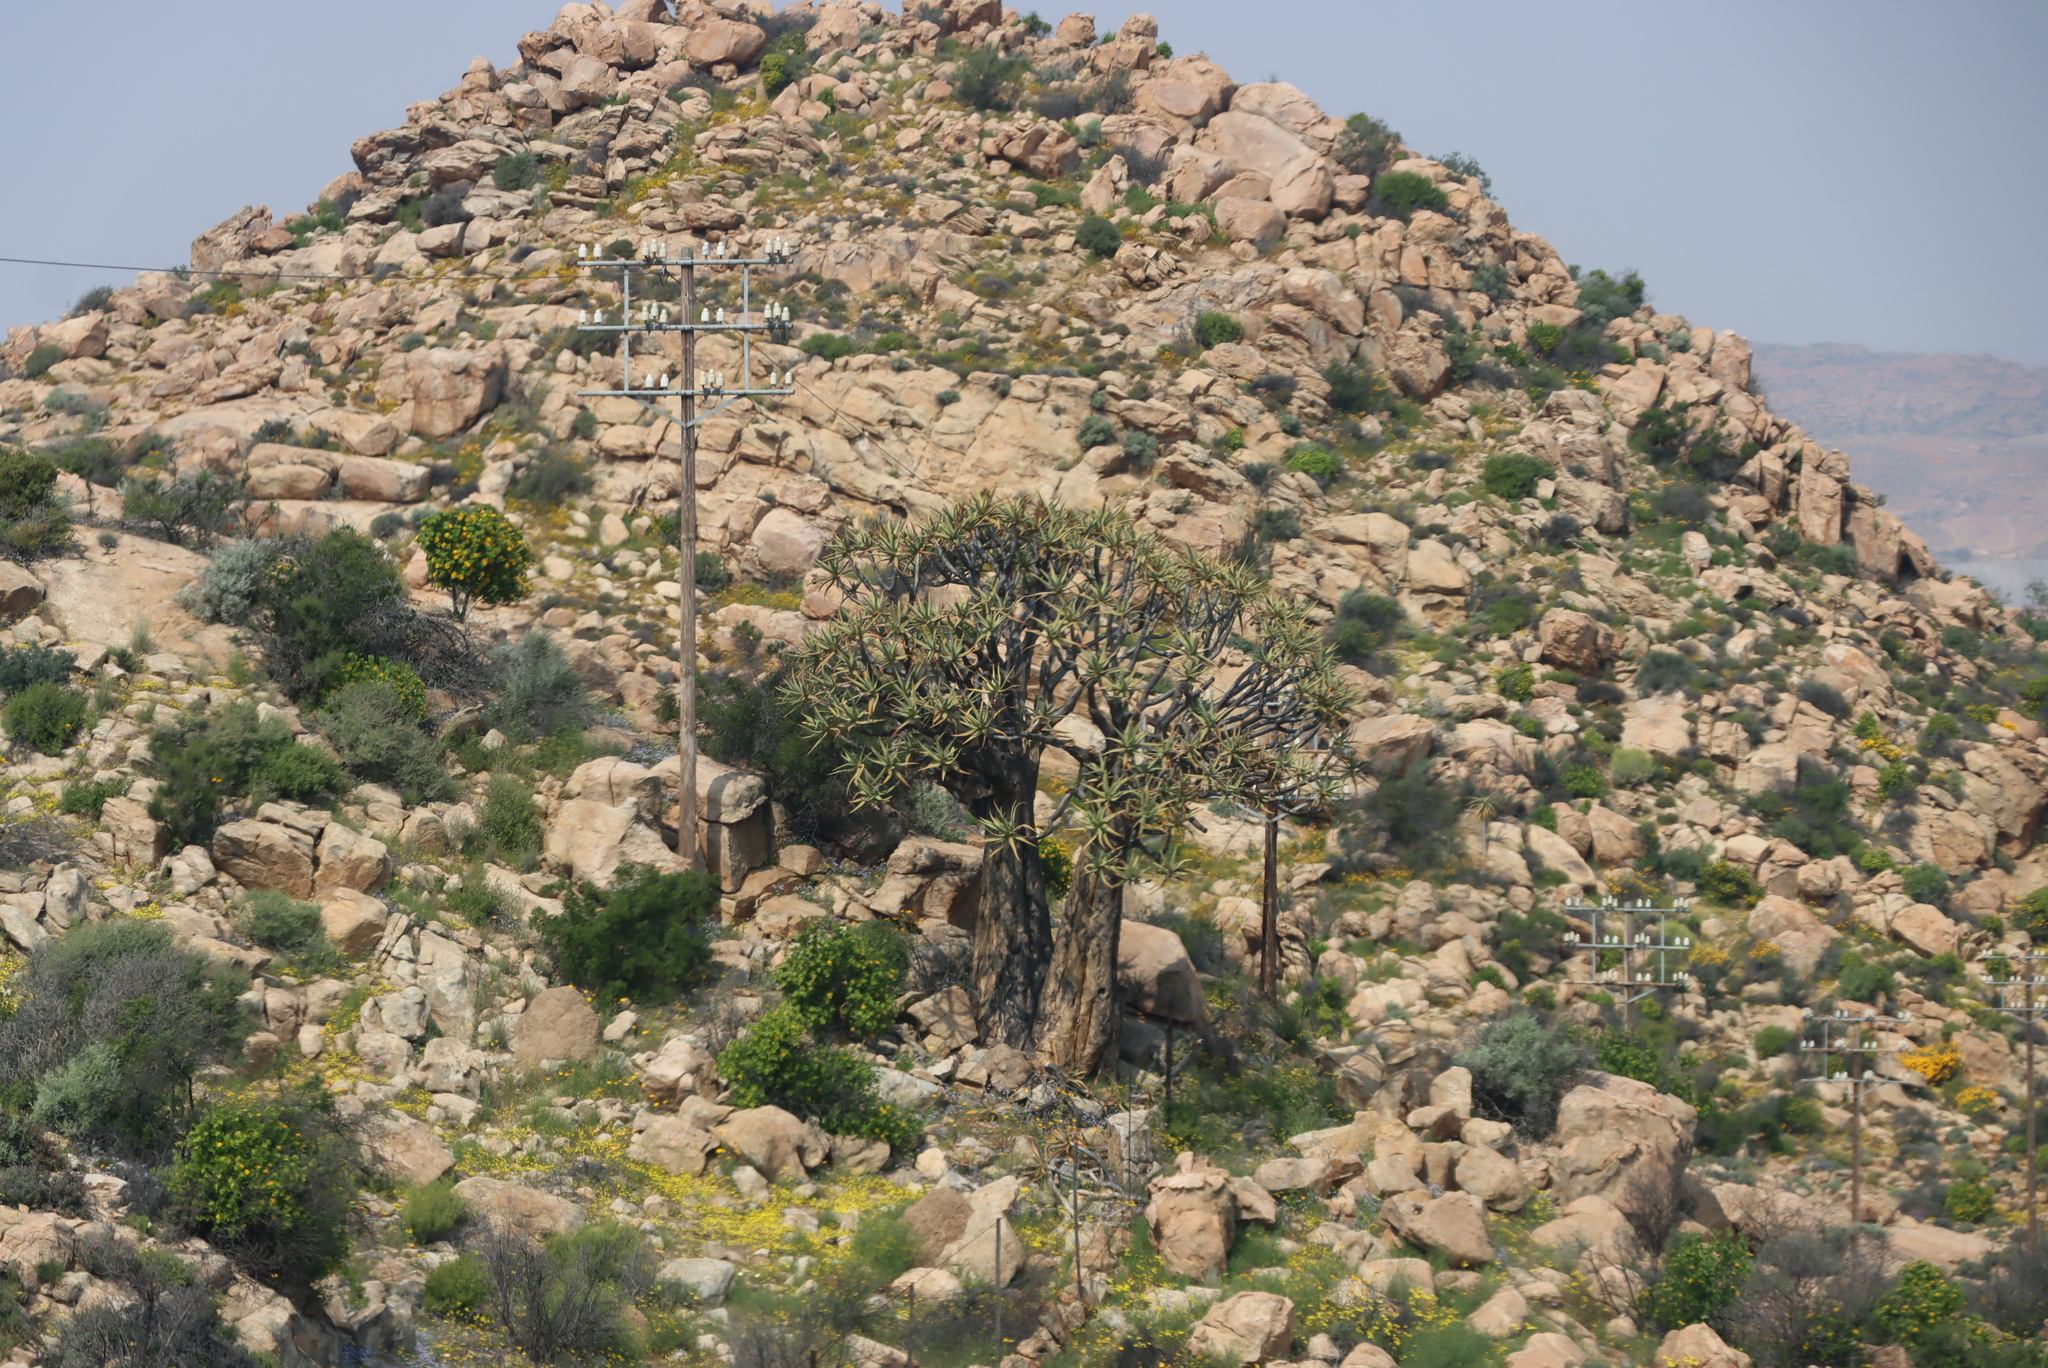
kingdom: Plantae
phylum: Tracheophyta
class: Liliopsida
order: Asparagales
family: Asphodelaceae
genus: Aloidendron
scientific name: Aloidendron dichotomum
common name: Quiver tree
